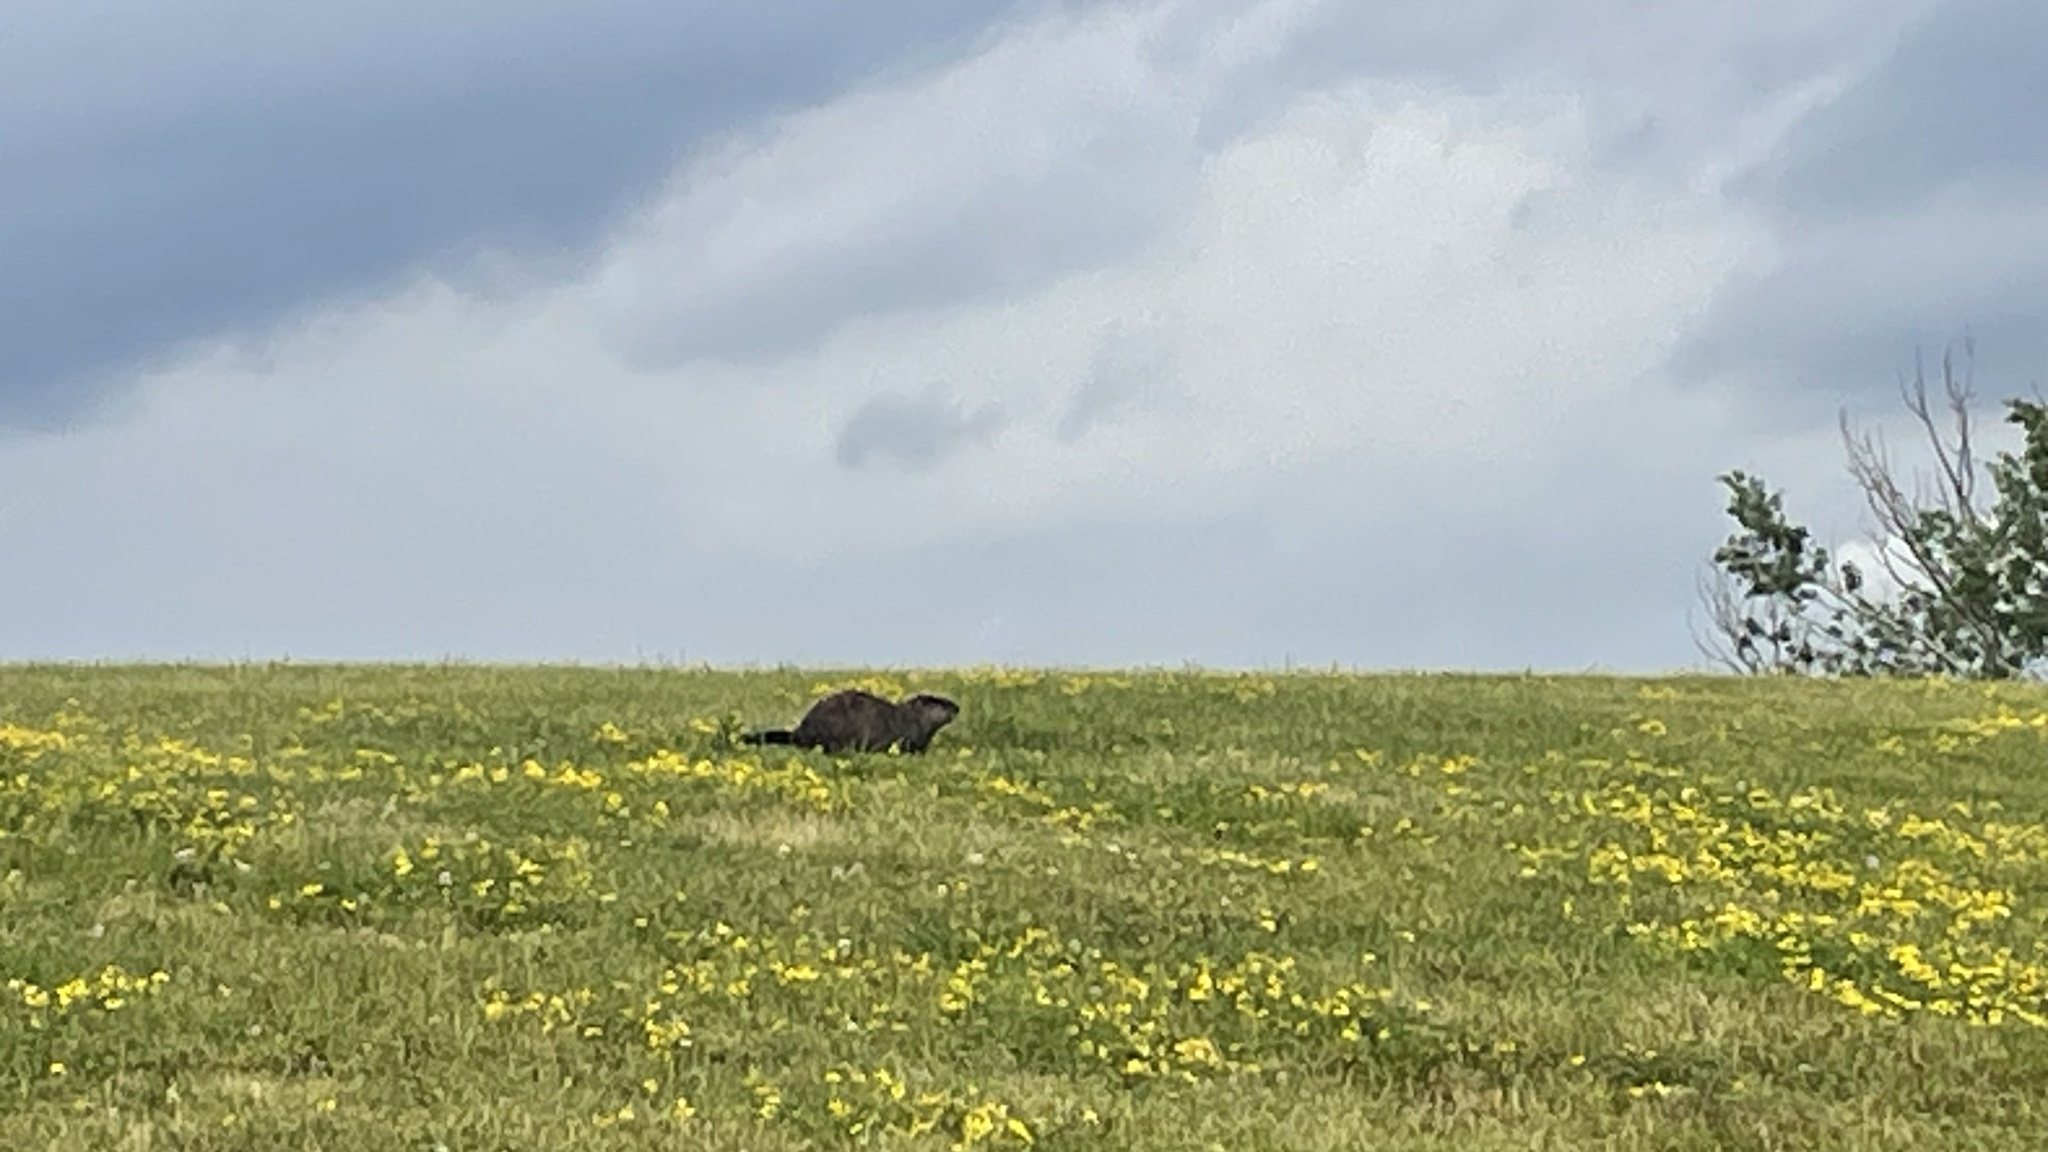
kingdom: Animalia
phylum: Chordata
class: Mammalia
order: Rodentia
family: Sciuridae
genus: Marmota
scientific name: Marmota monax
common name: Groundhog
